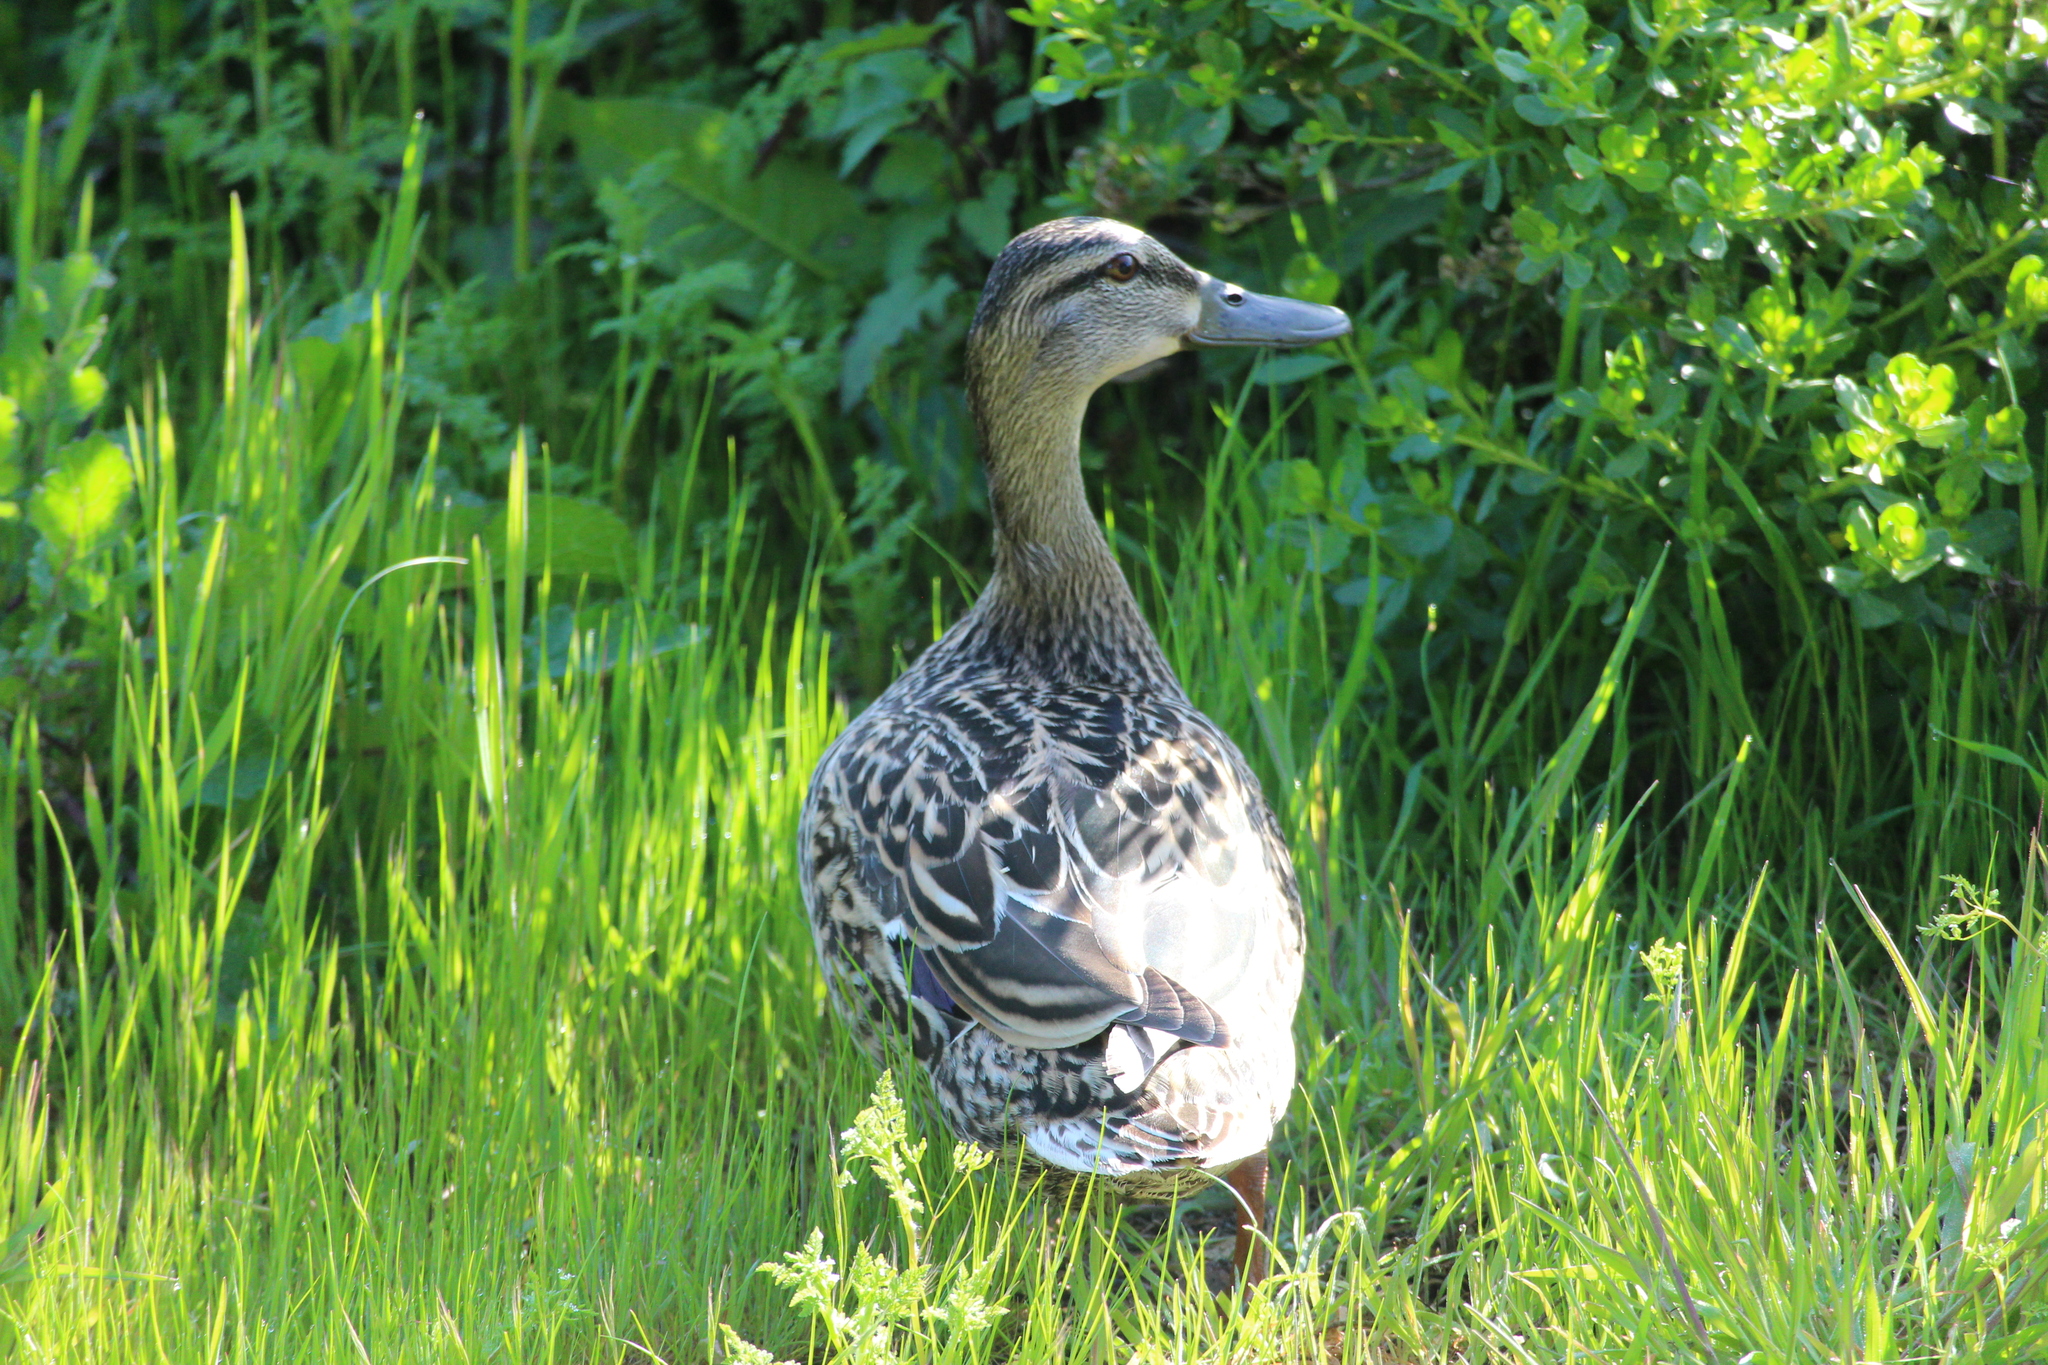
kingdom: Animalia
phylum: Chordata
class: Aves
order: Anseriformes
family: Anatidae
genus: Anas
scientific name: Anas platyrhynchos
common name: Mallard
